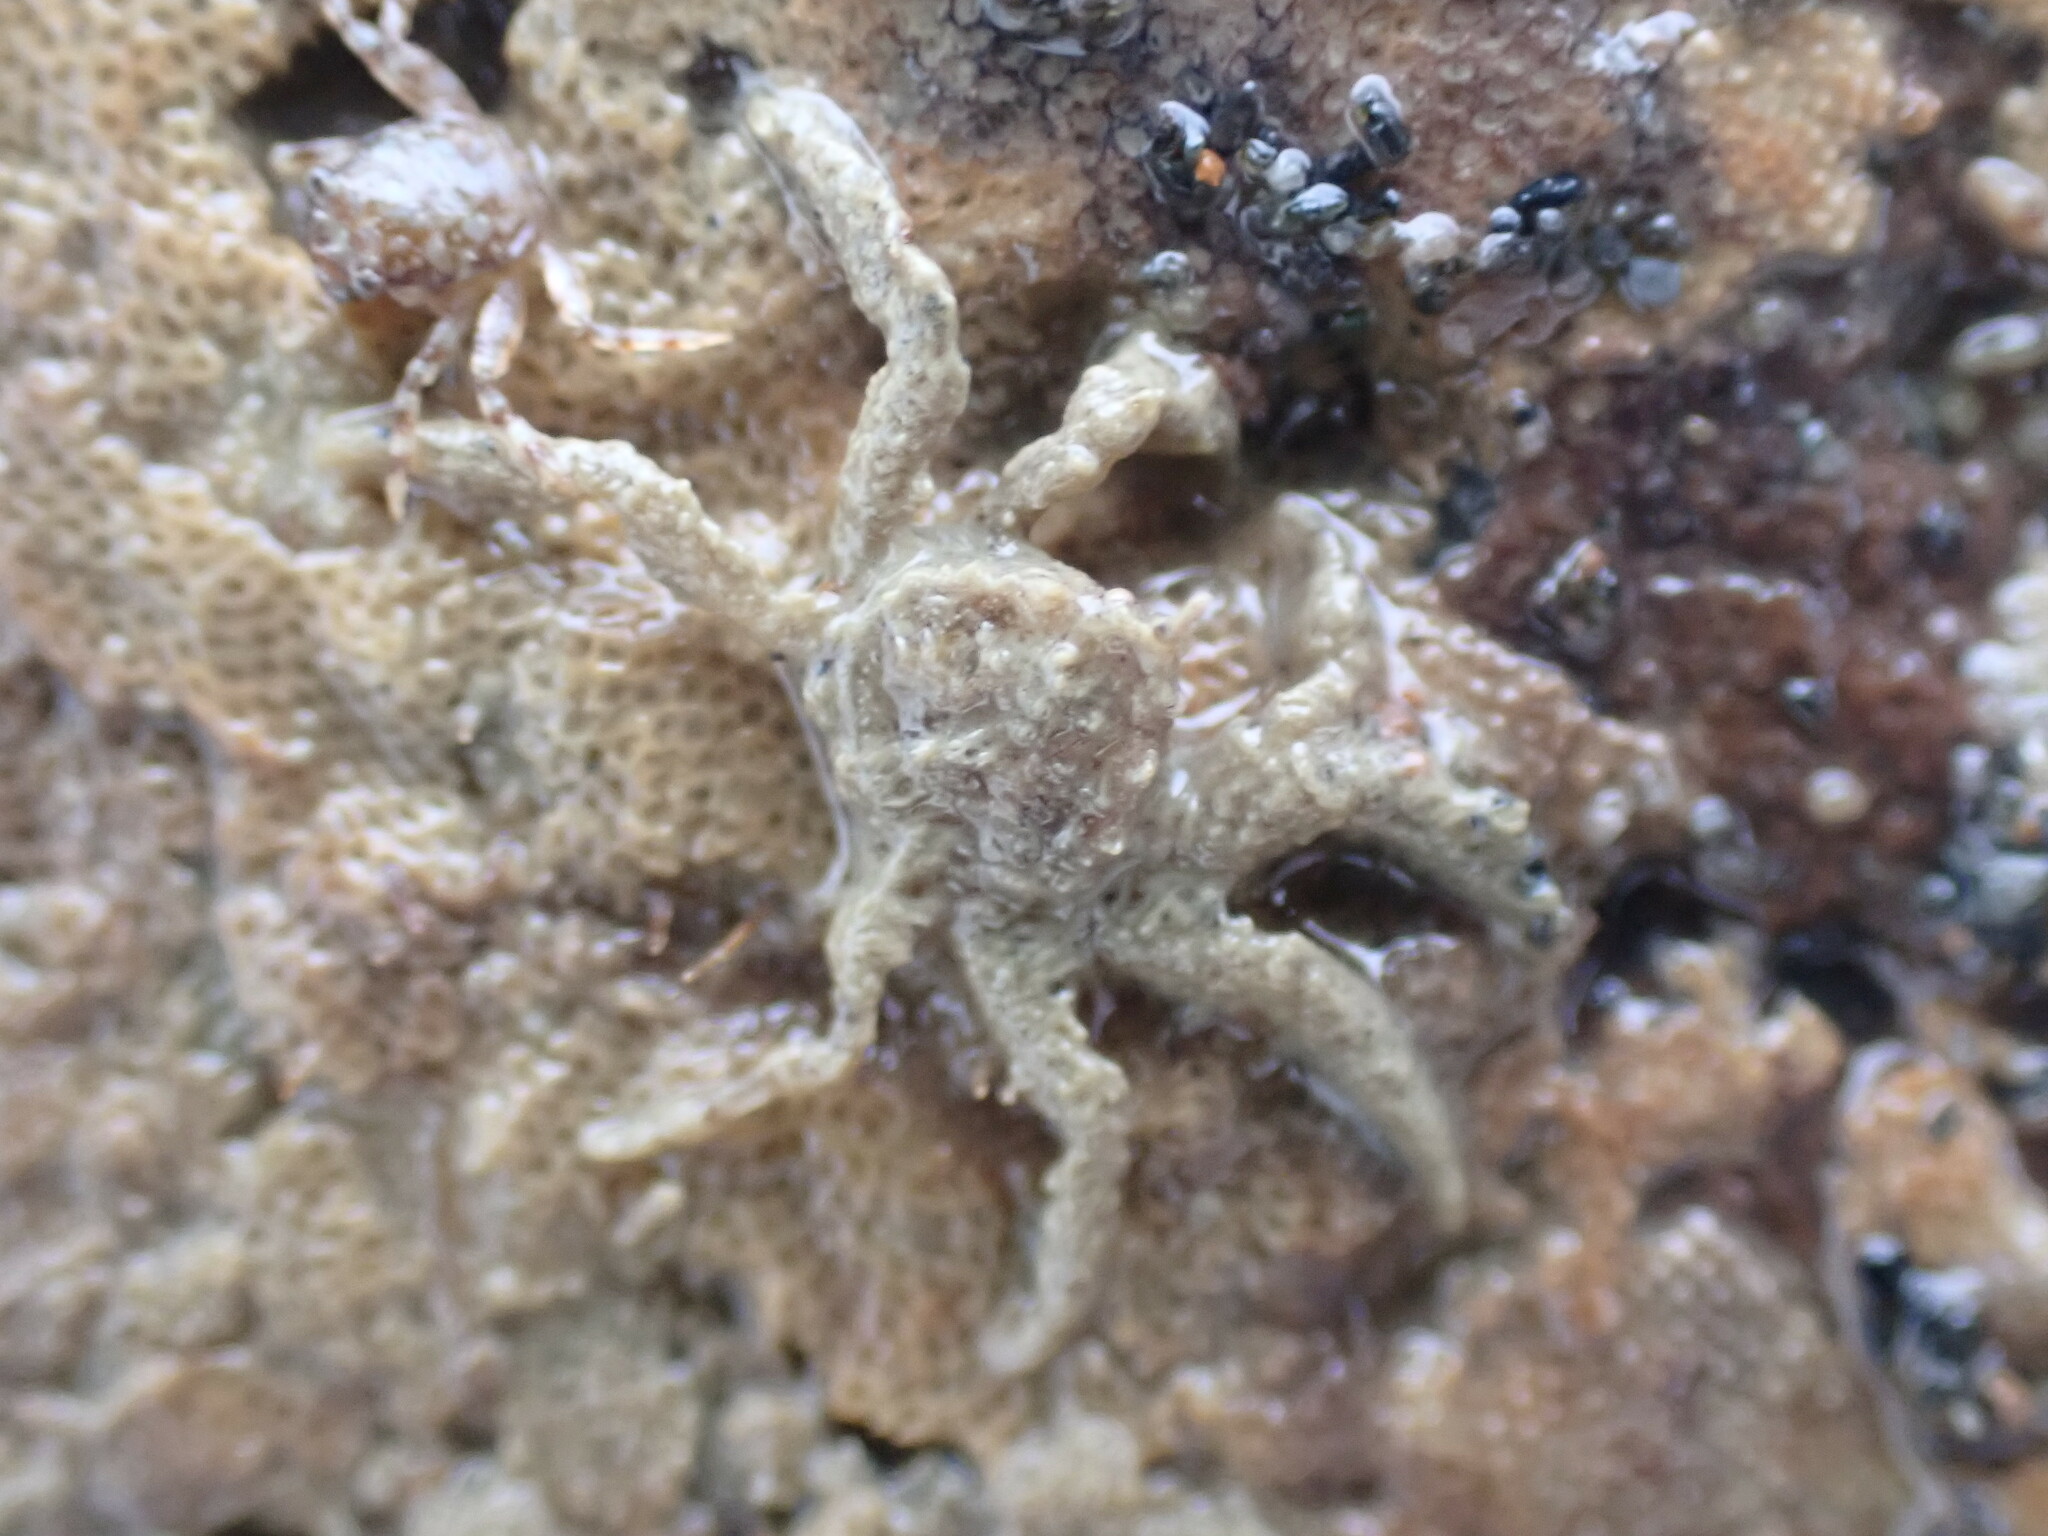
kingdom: Animalia
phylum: Arthropoda
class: Malacostraca
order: Decapoda
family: Hymenosomatidae
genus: Neohymenicus
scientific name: Neohymenicus pubescens
